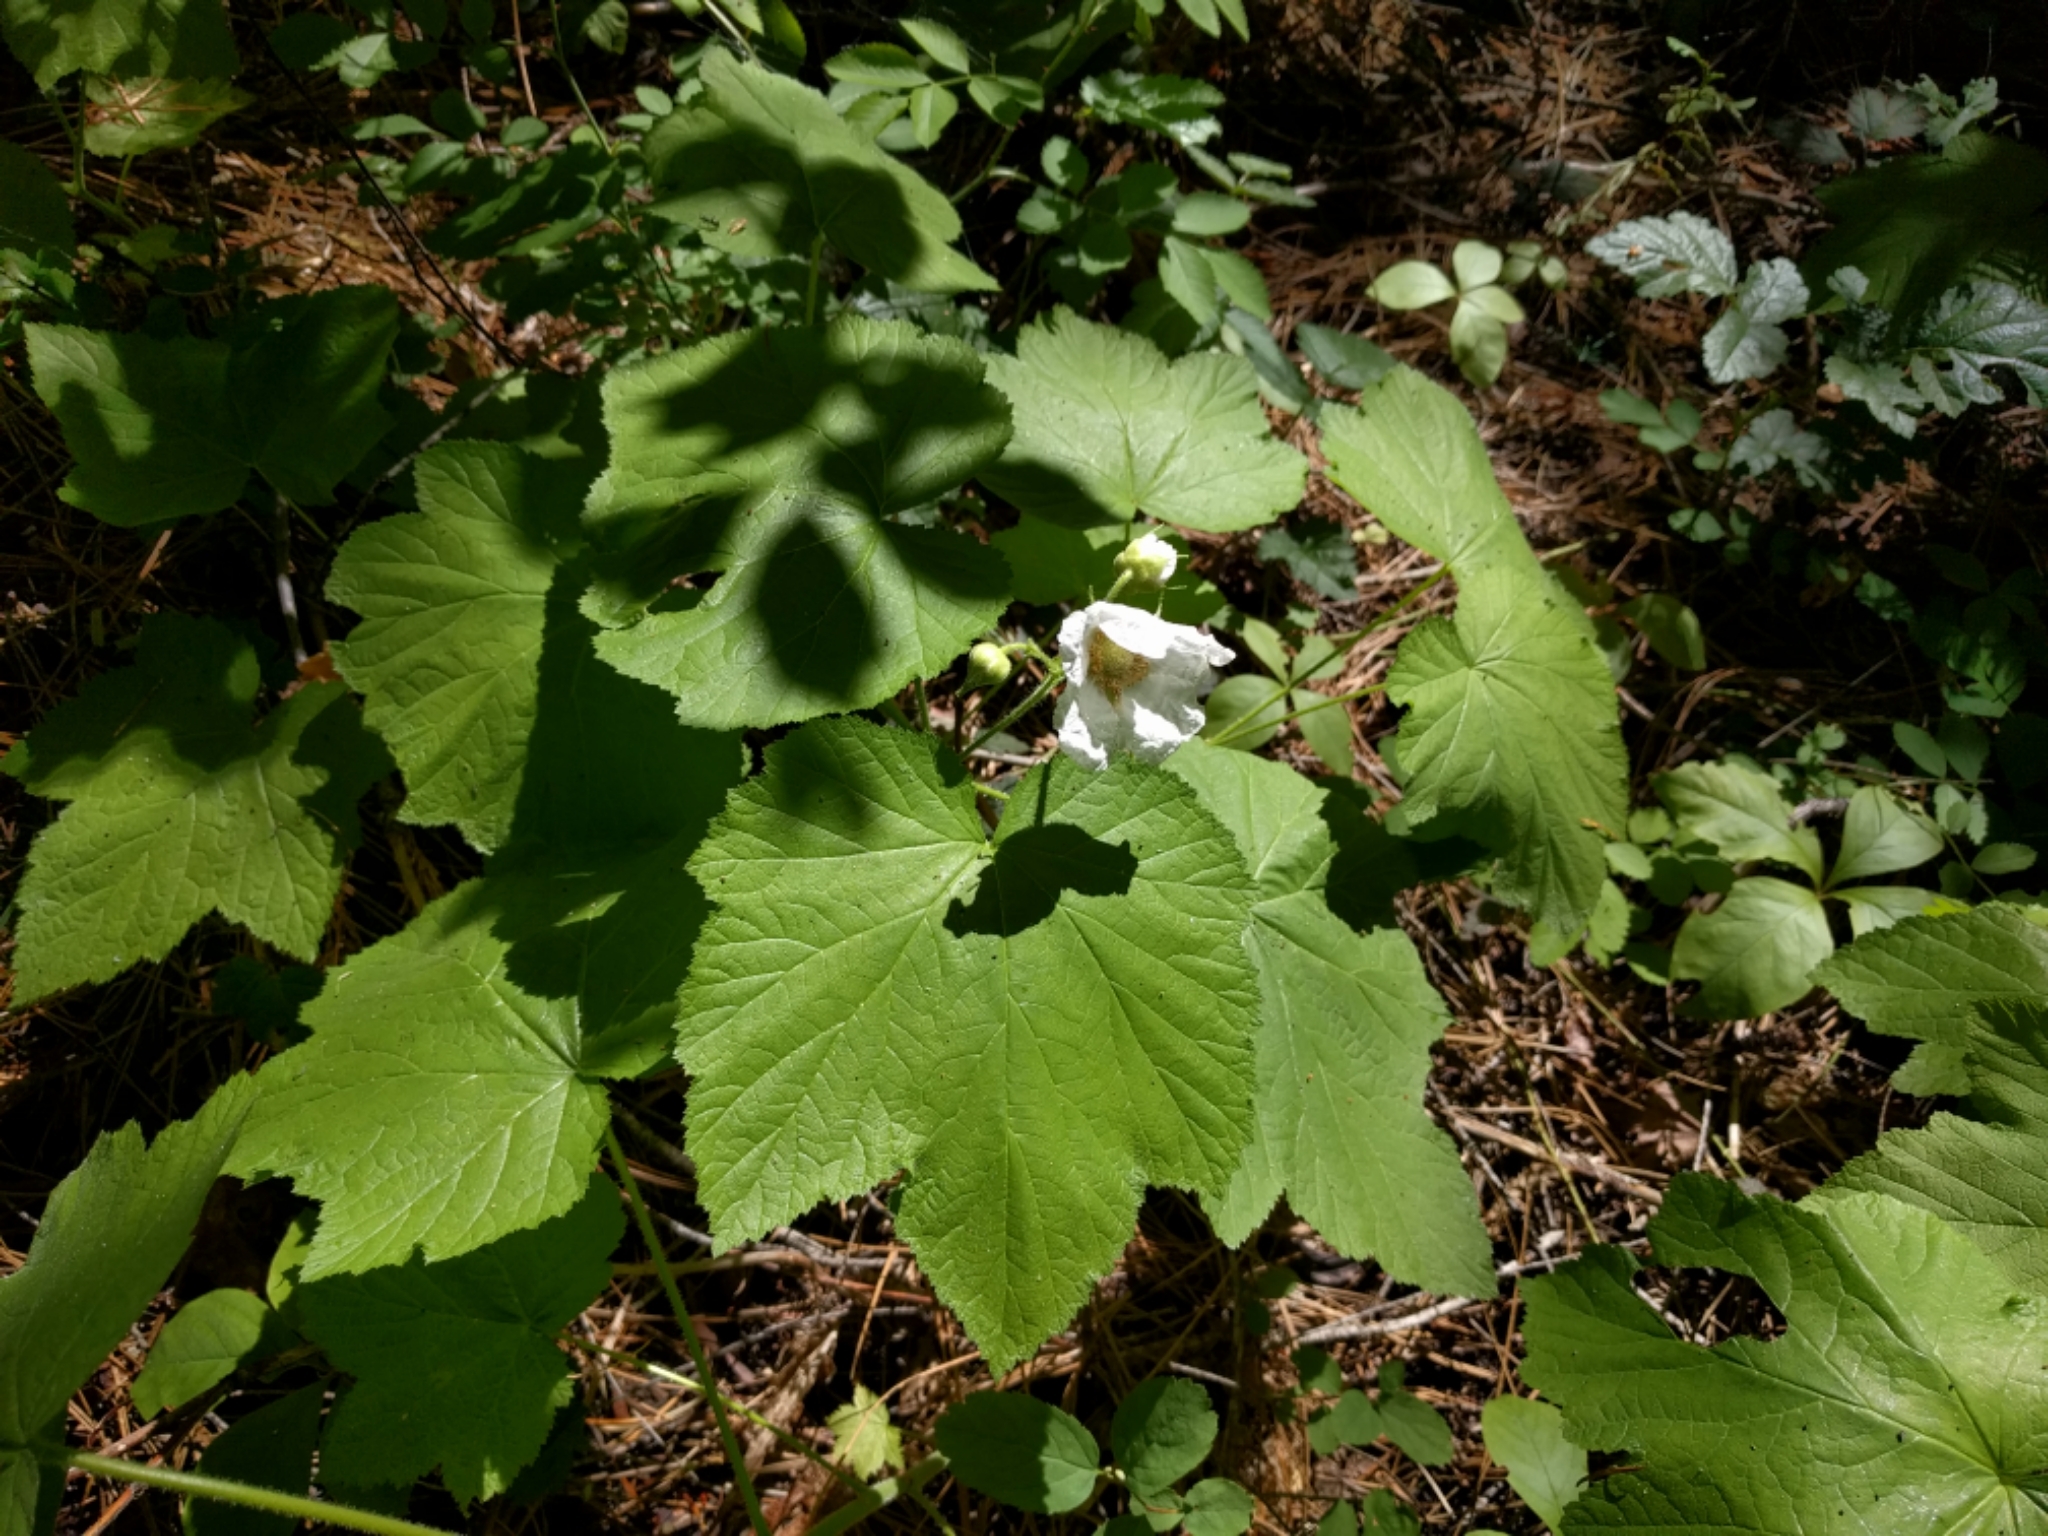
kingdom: Plantae
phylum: Tracheophyta
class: Magnoliopsida
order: Rosales
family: Rosaceae
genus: Rubus
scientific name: Rubus parviflorus
